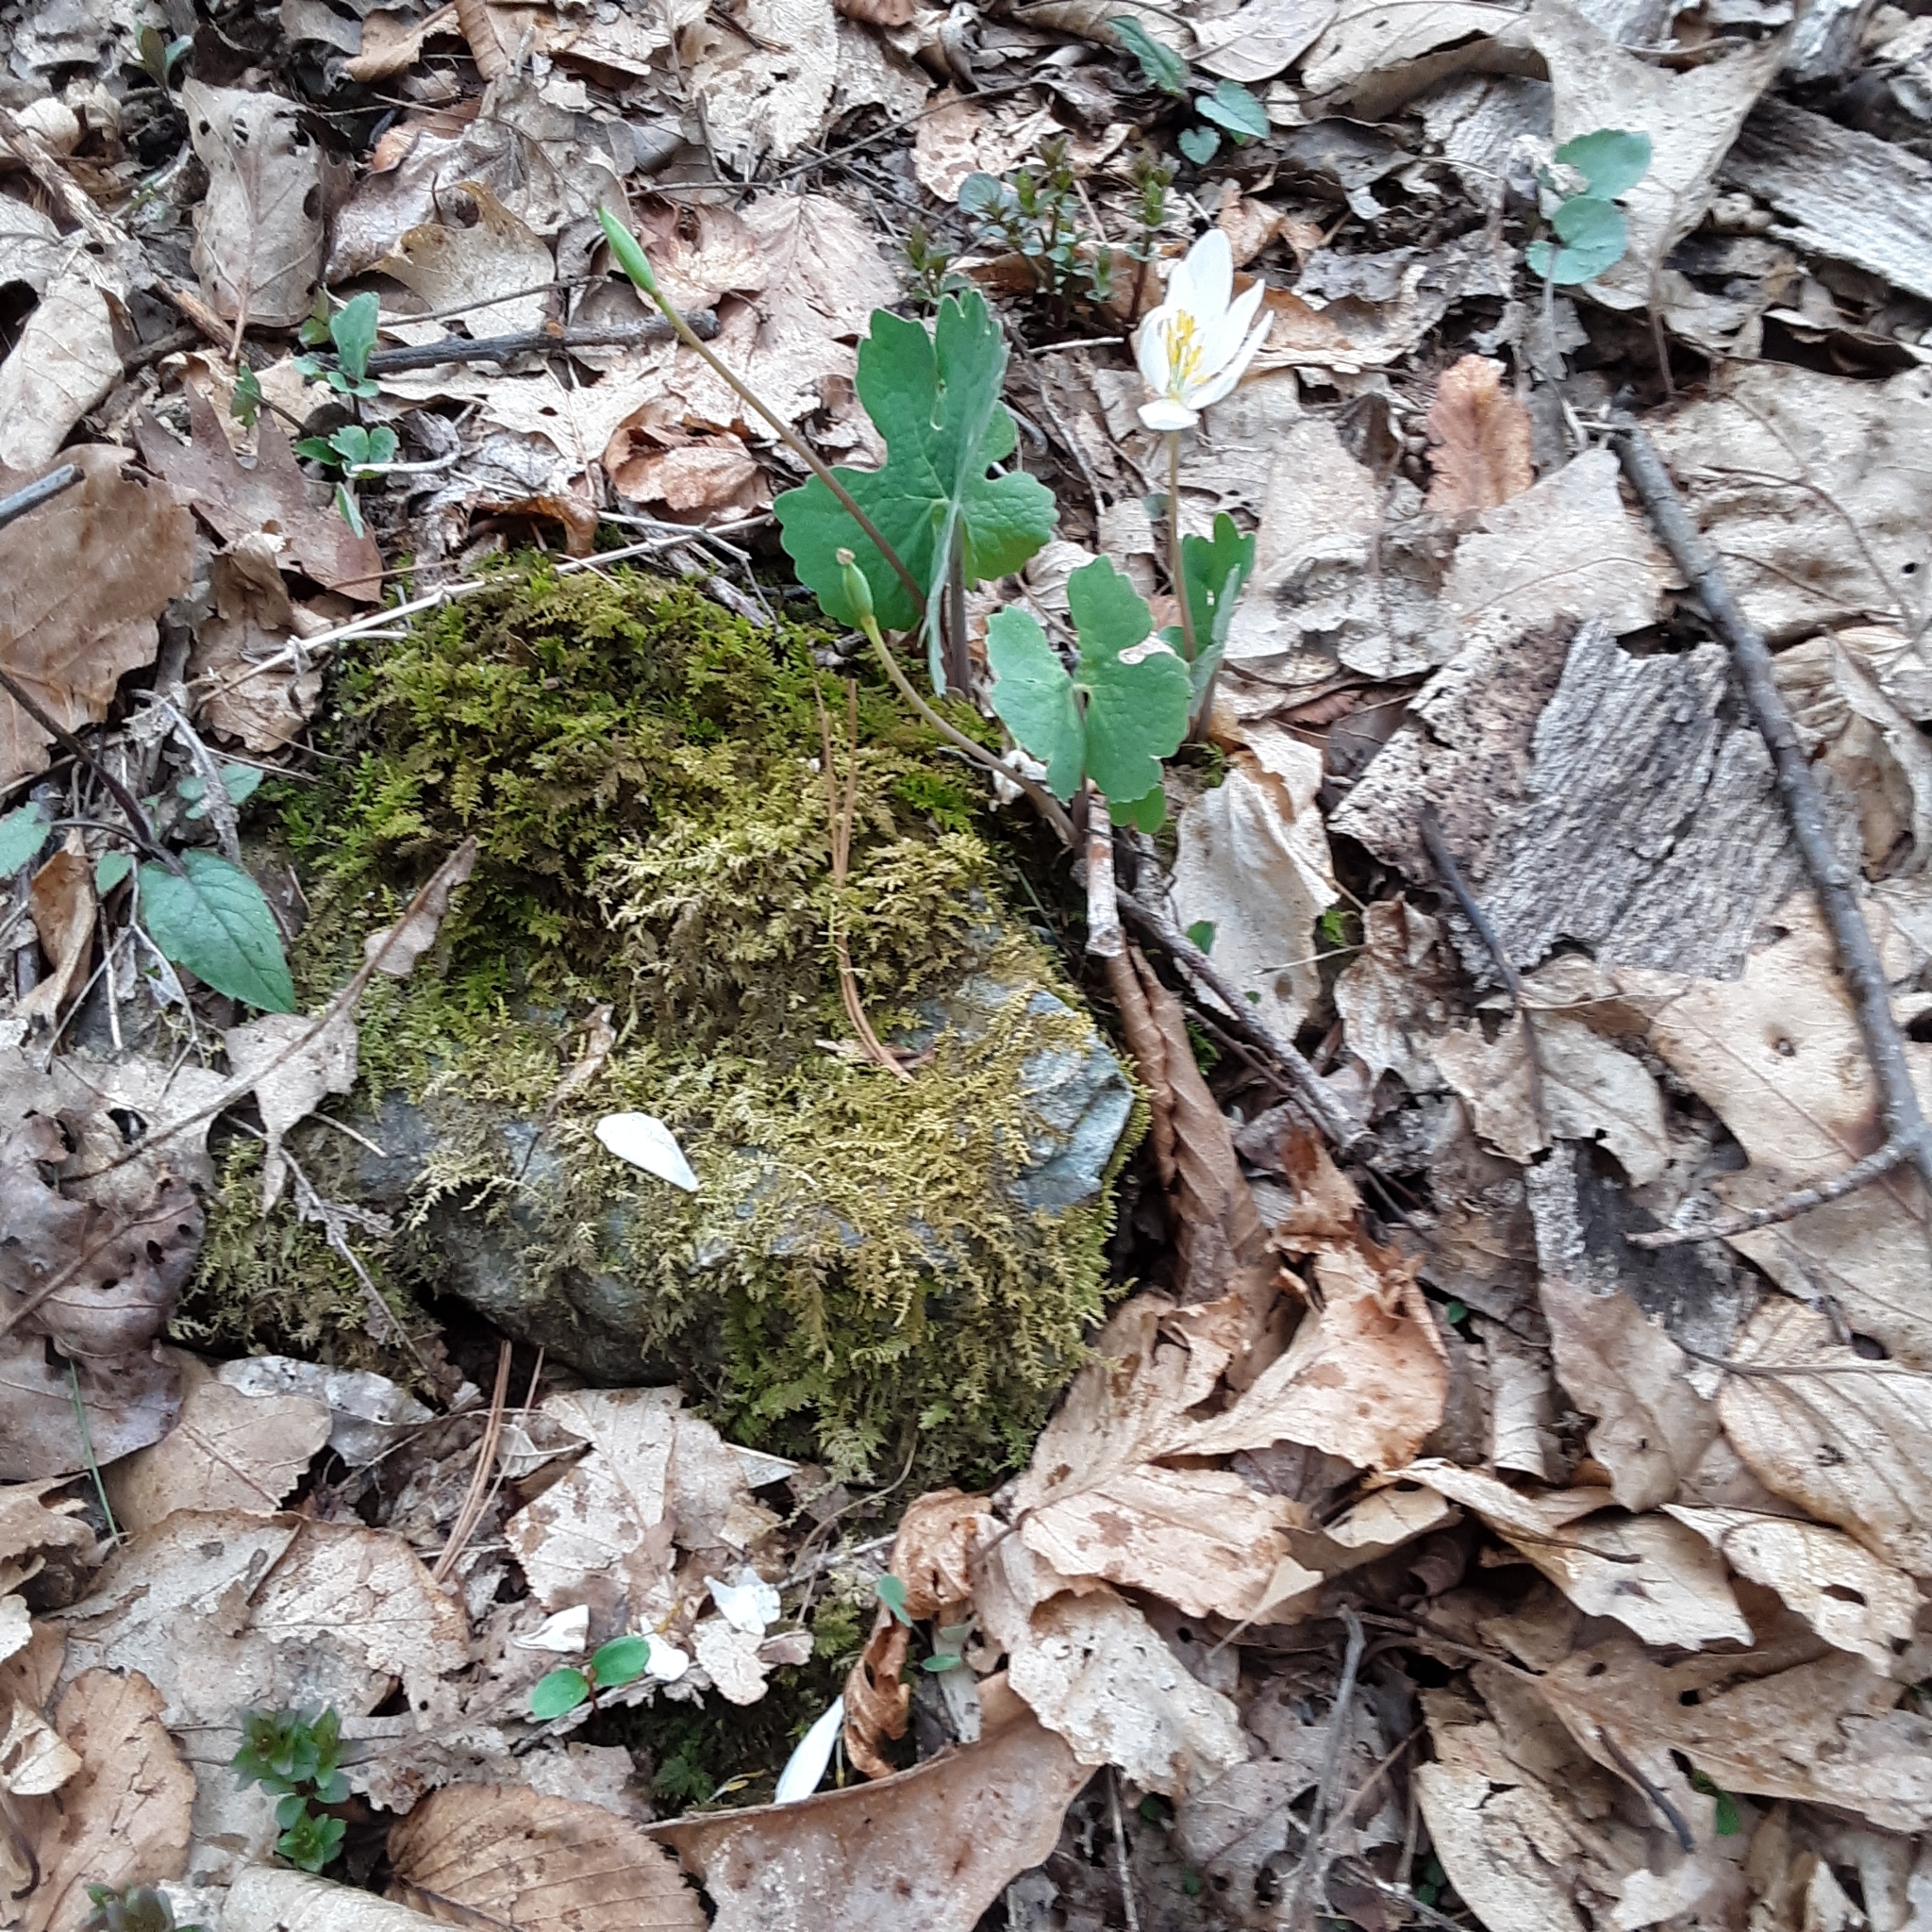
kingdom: Plantae
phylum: Tracheophyta
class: Magnoliopsida
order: Ranunculales
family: Papaveraceae
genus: Sanguinaria
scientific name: Sanguinaria canadensis
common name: Bloodroot
